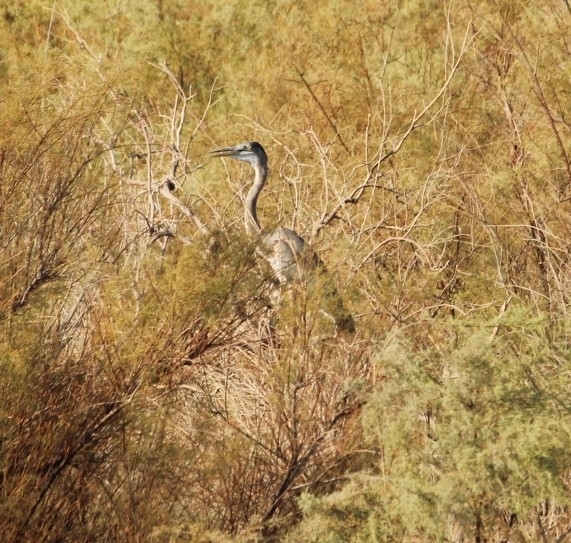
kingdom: Animalia
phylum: Chordata
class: Aves
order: Pelecaniformes
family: Ardeidae
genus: Ardea
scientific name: Ardea herodias
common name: Great blue heron
